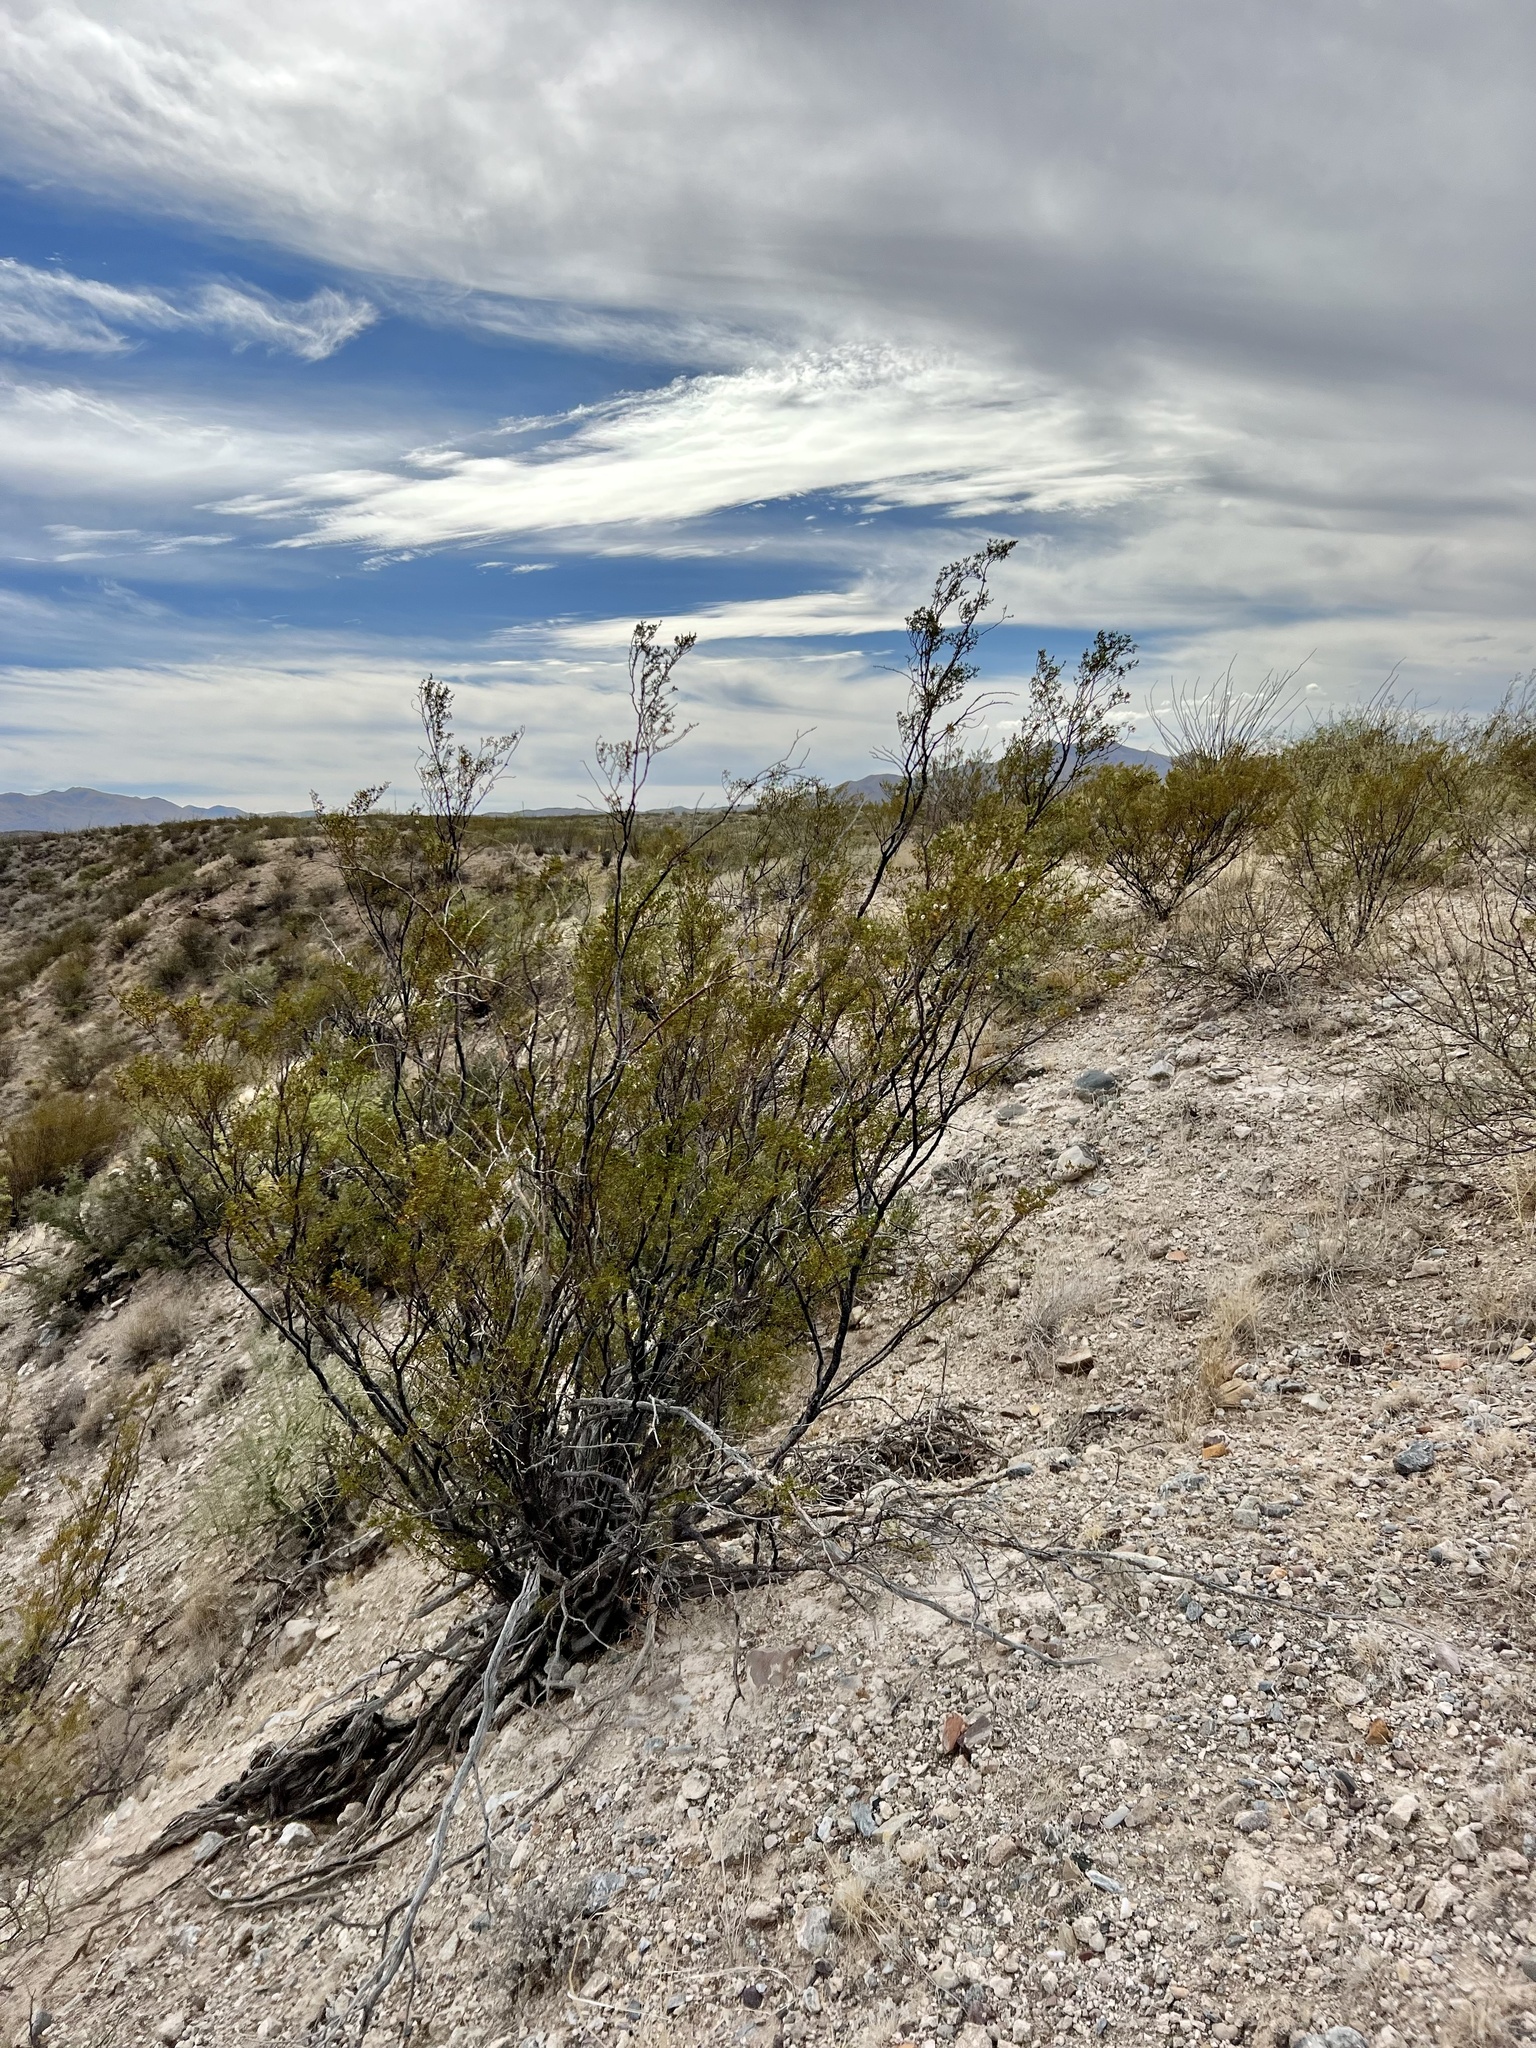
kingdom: Plantae
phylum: Tracheophyta
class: Magnoliopsida
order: Zygophyllales
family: Zygophyllaceae
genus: Larrea
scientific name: Larrea tridentata
